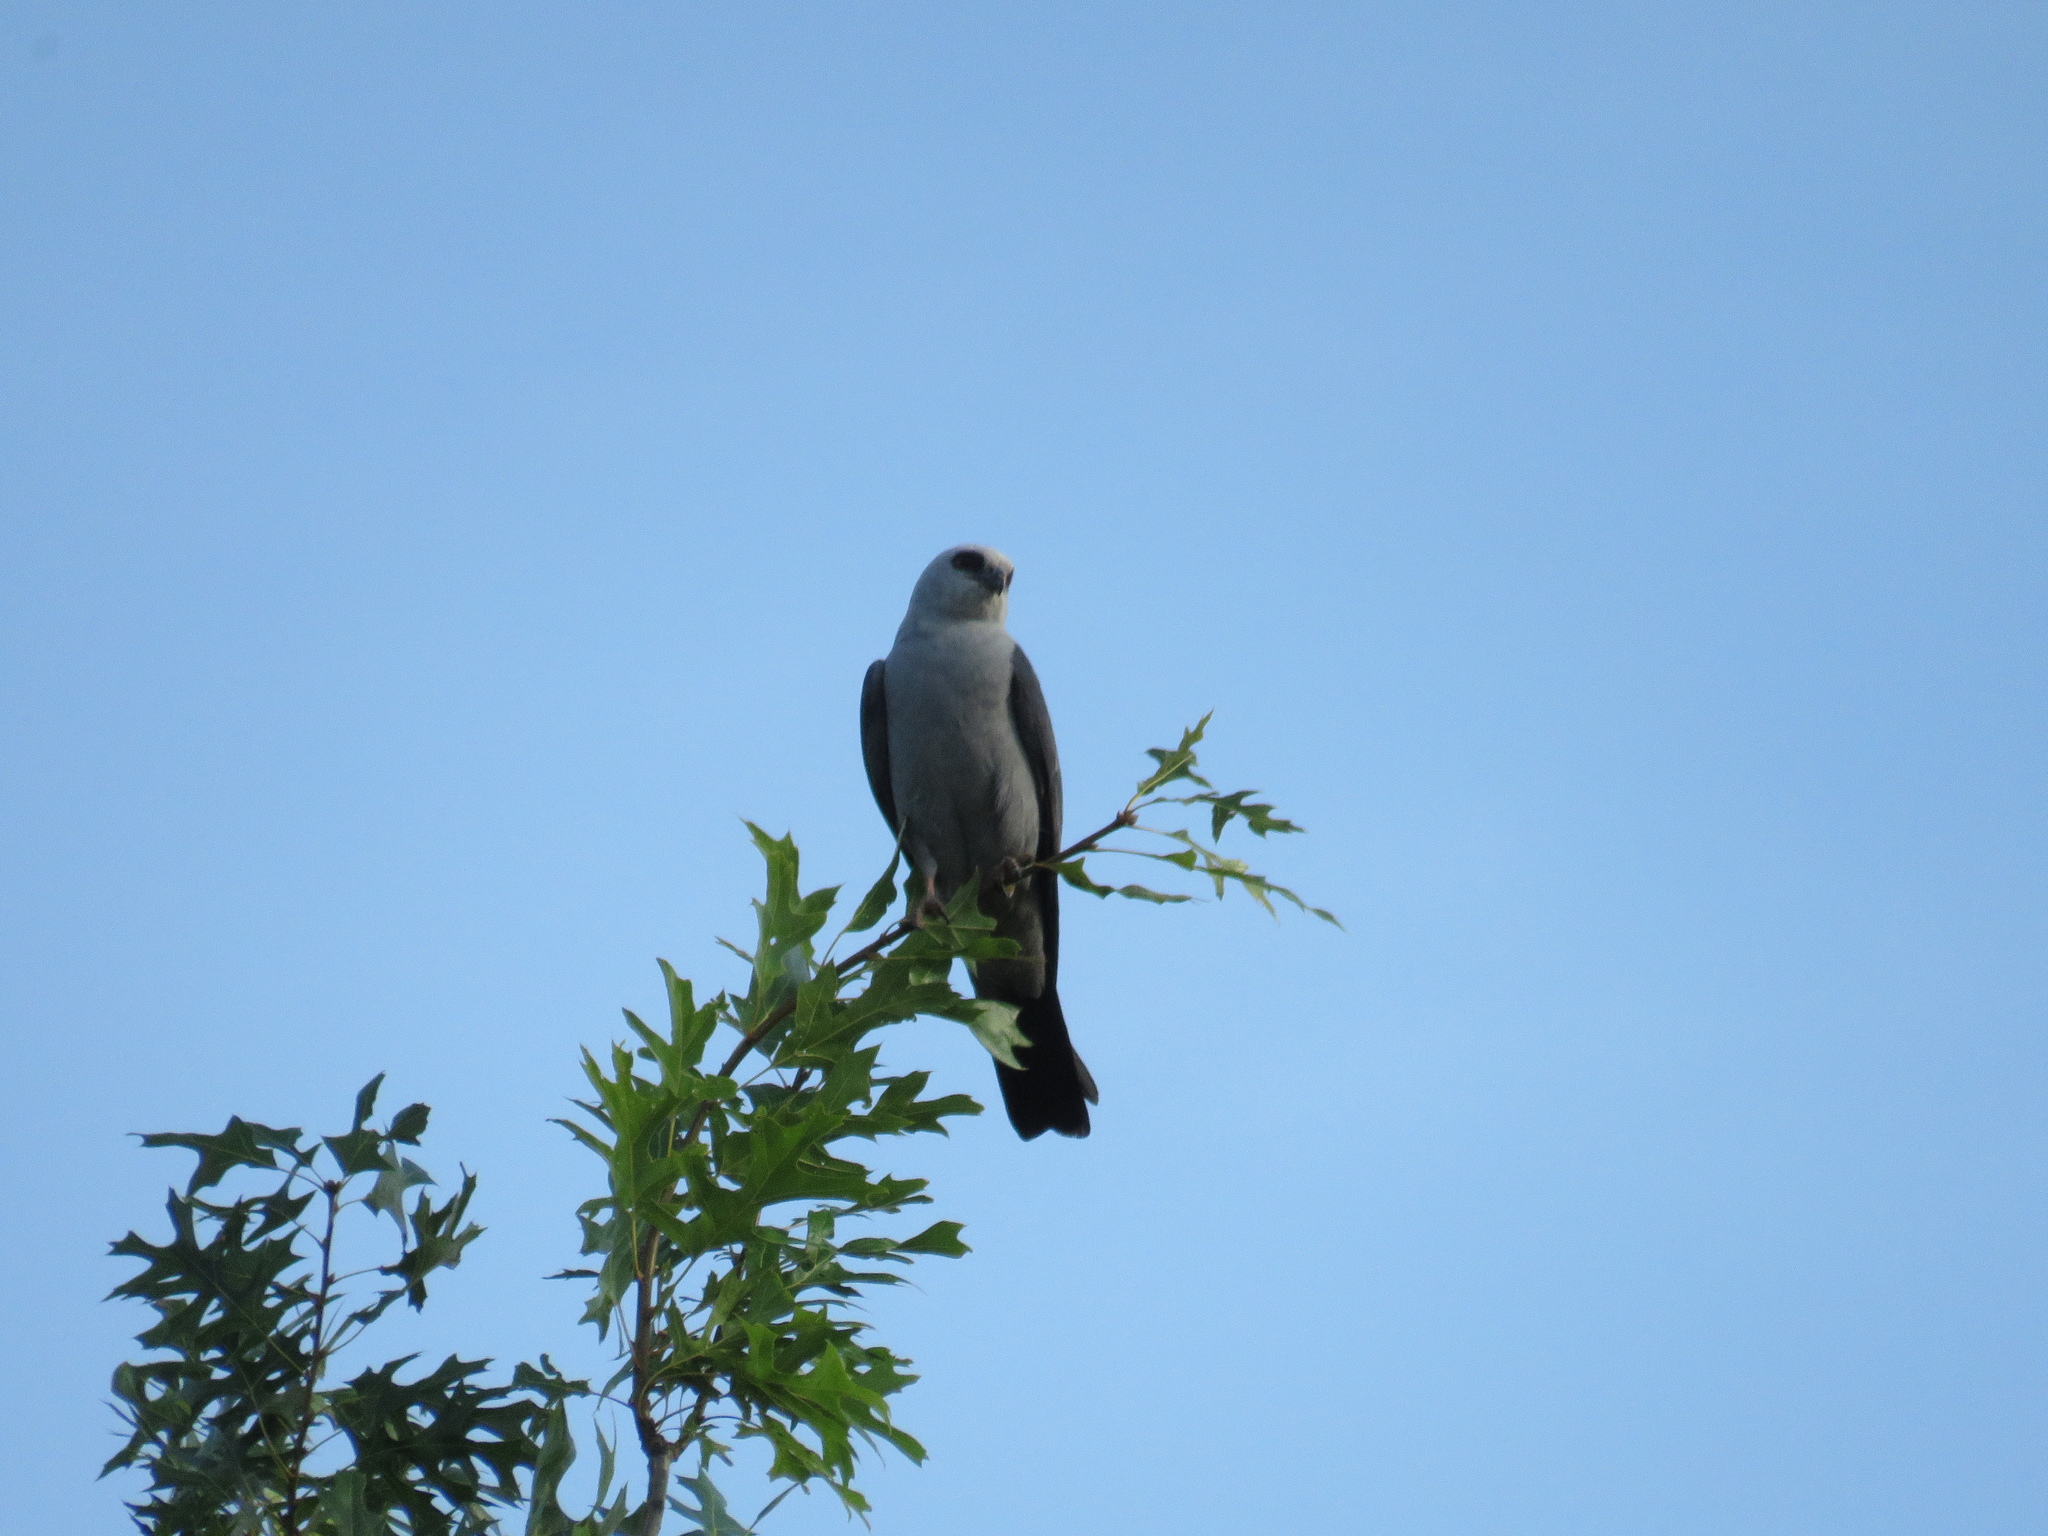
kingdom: Animalia
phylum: Chordata
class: Aves
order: Accipitriformes
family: Accipitridae
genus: Ictinia
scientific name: Ictinia mississippiensis
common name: Mississippi kite
